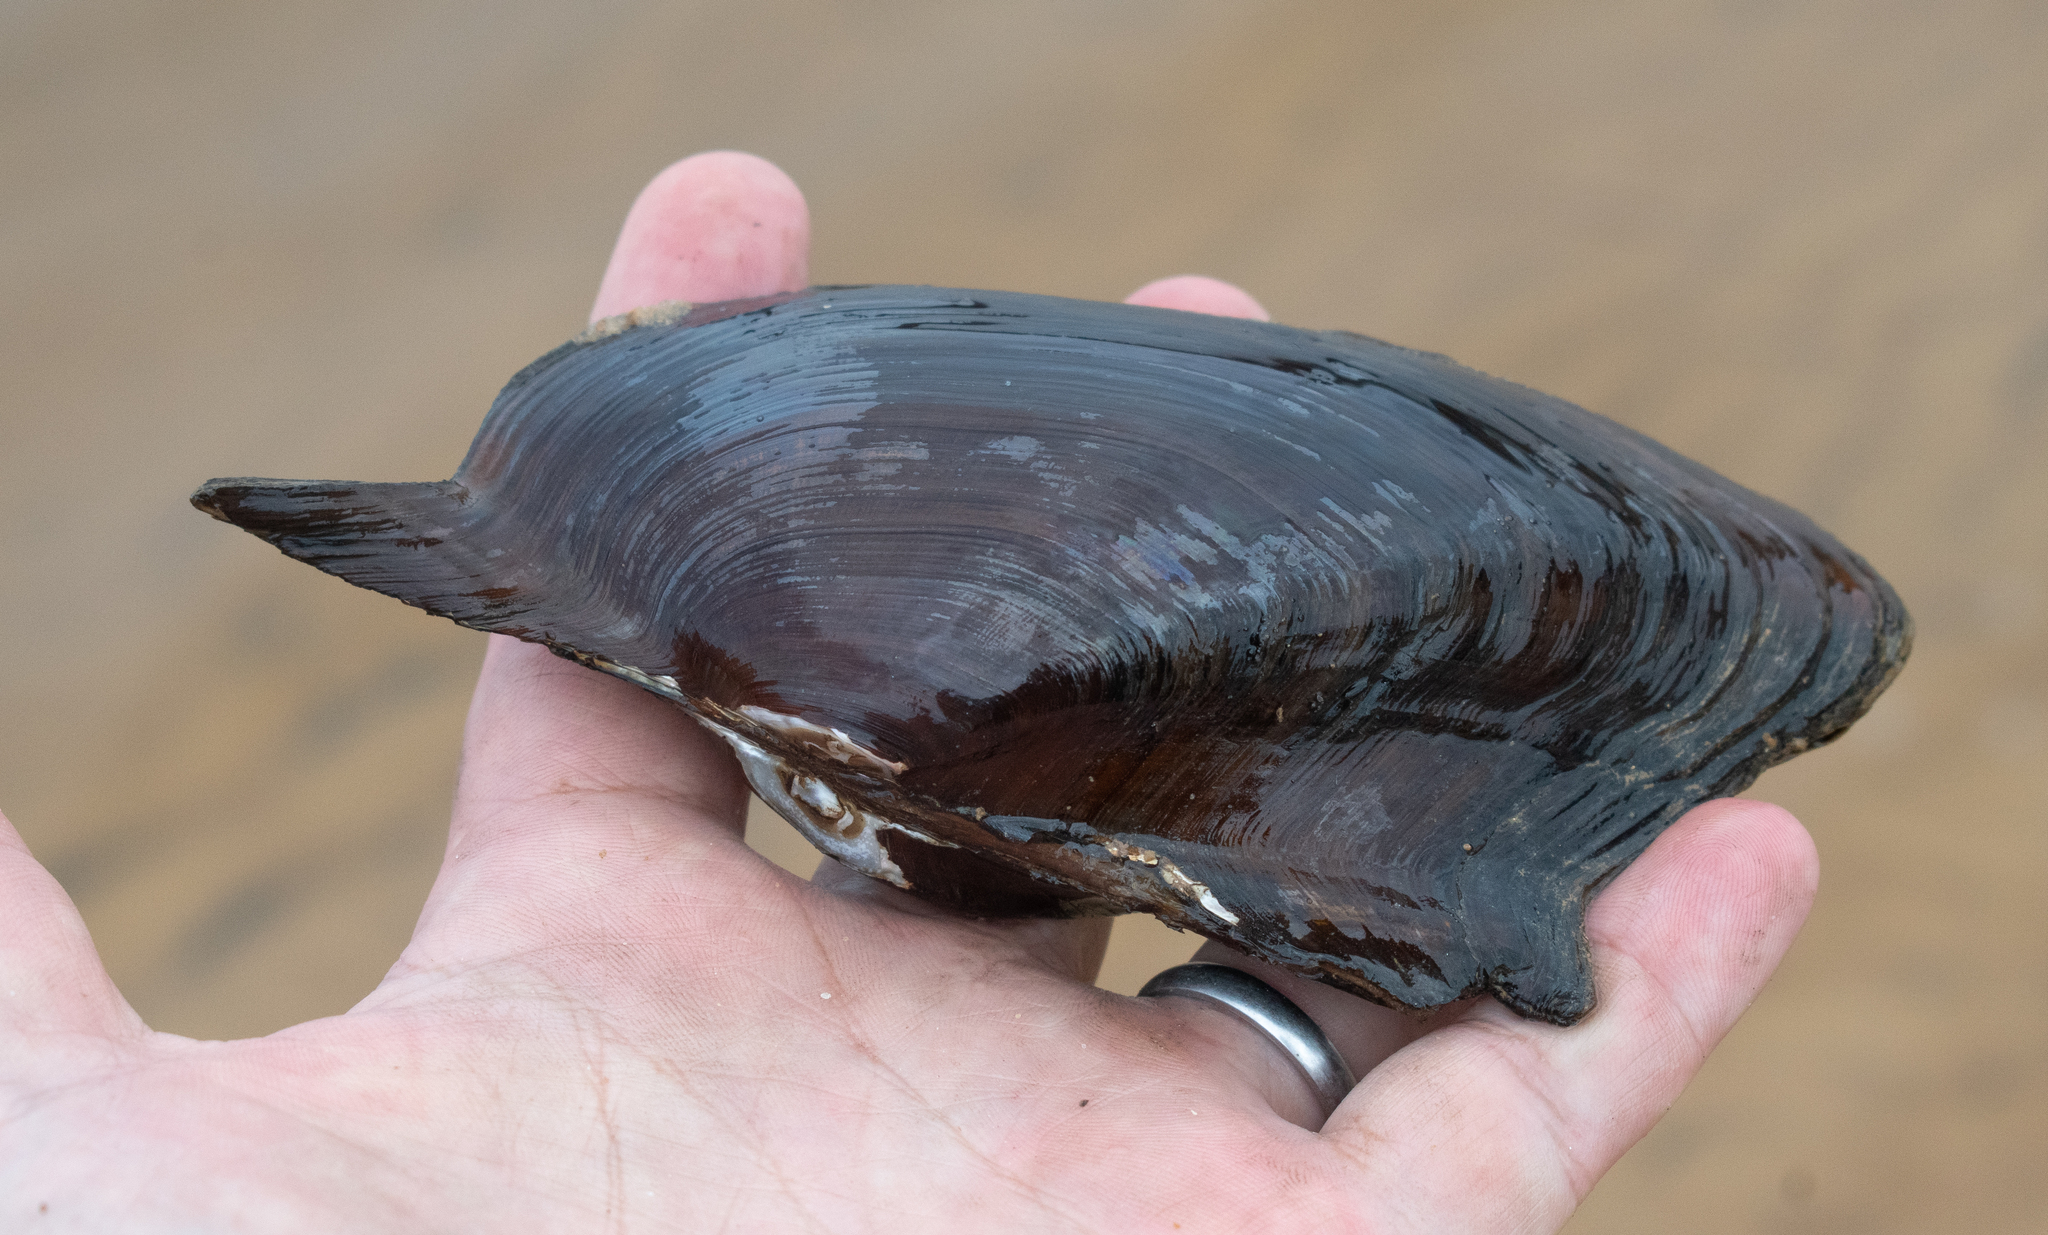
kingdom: Animalia
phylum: Mollusca
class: Bivalvia
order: Unionida
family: Hyriidae
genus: Prisodon
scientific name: Prisodon obliquus
